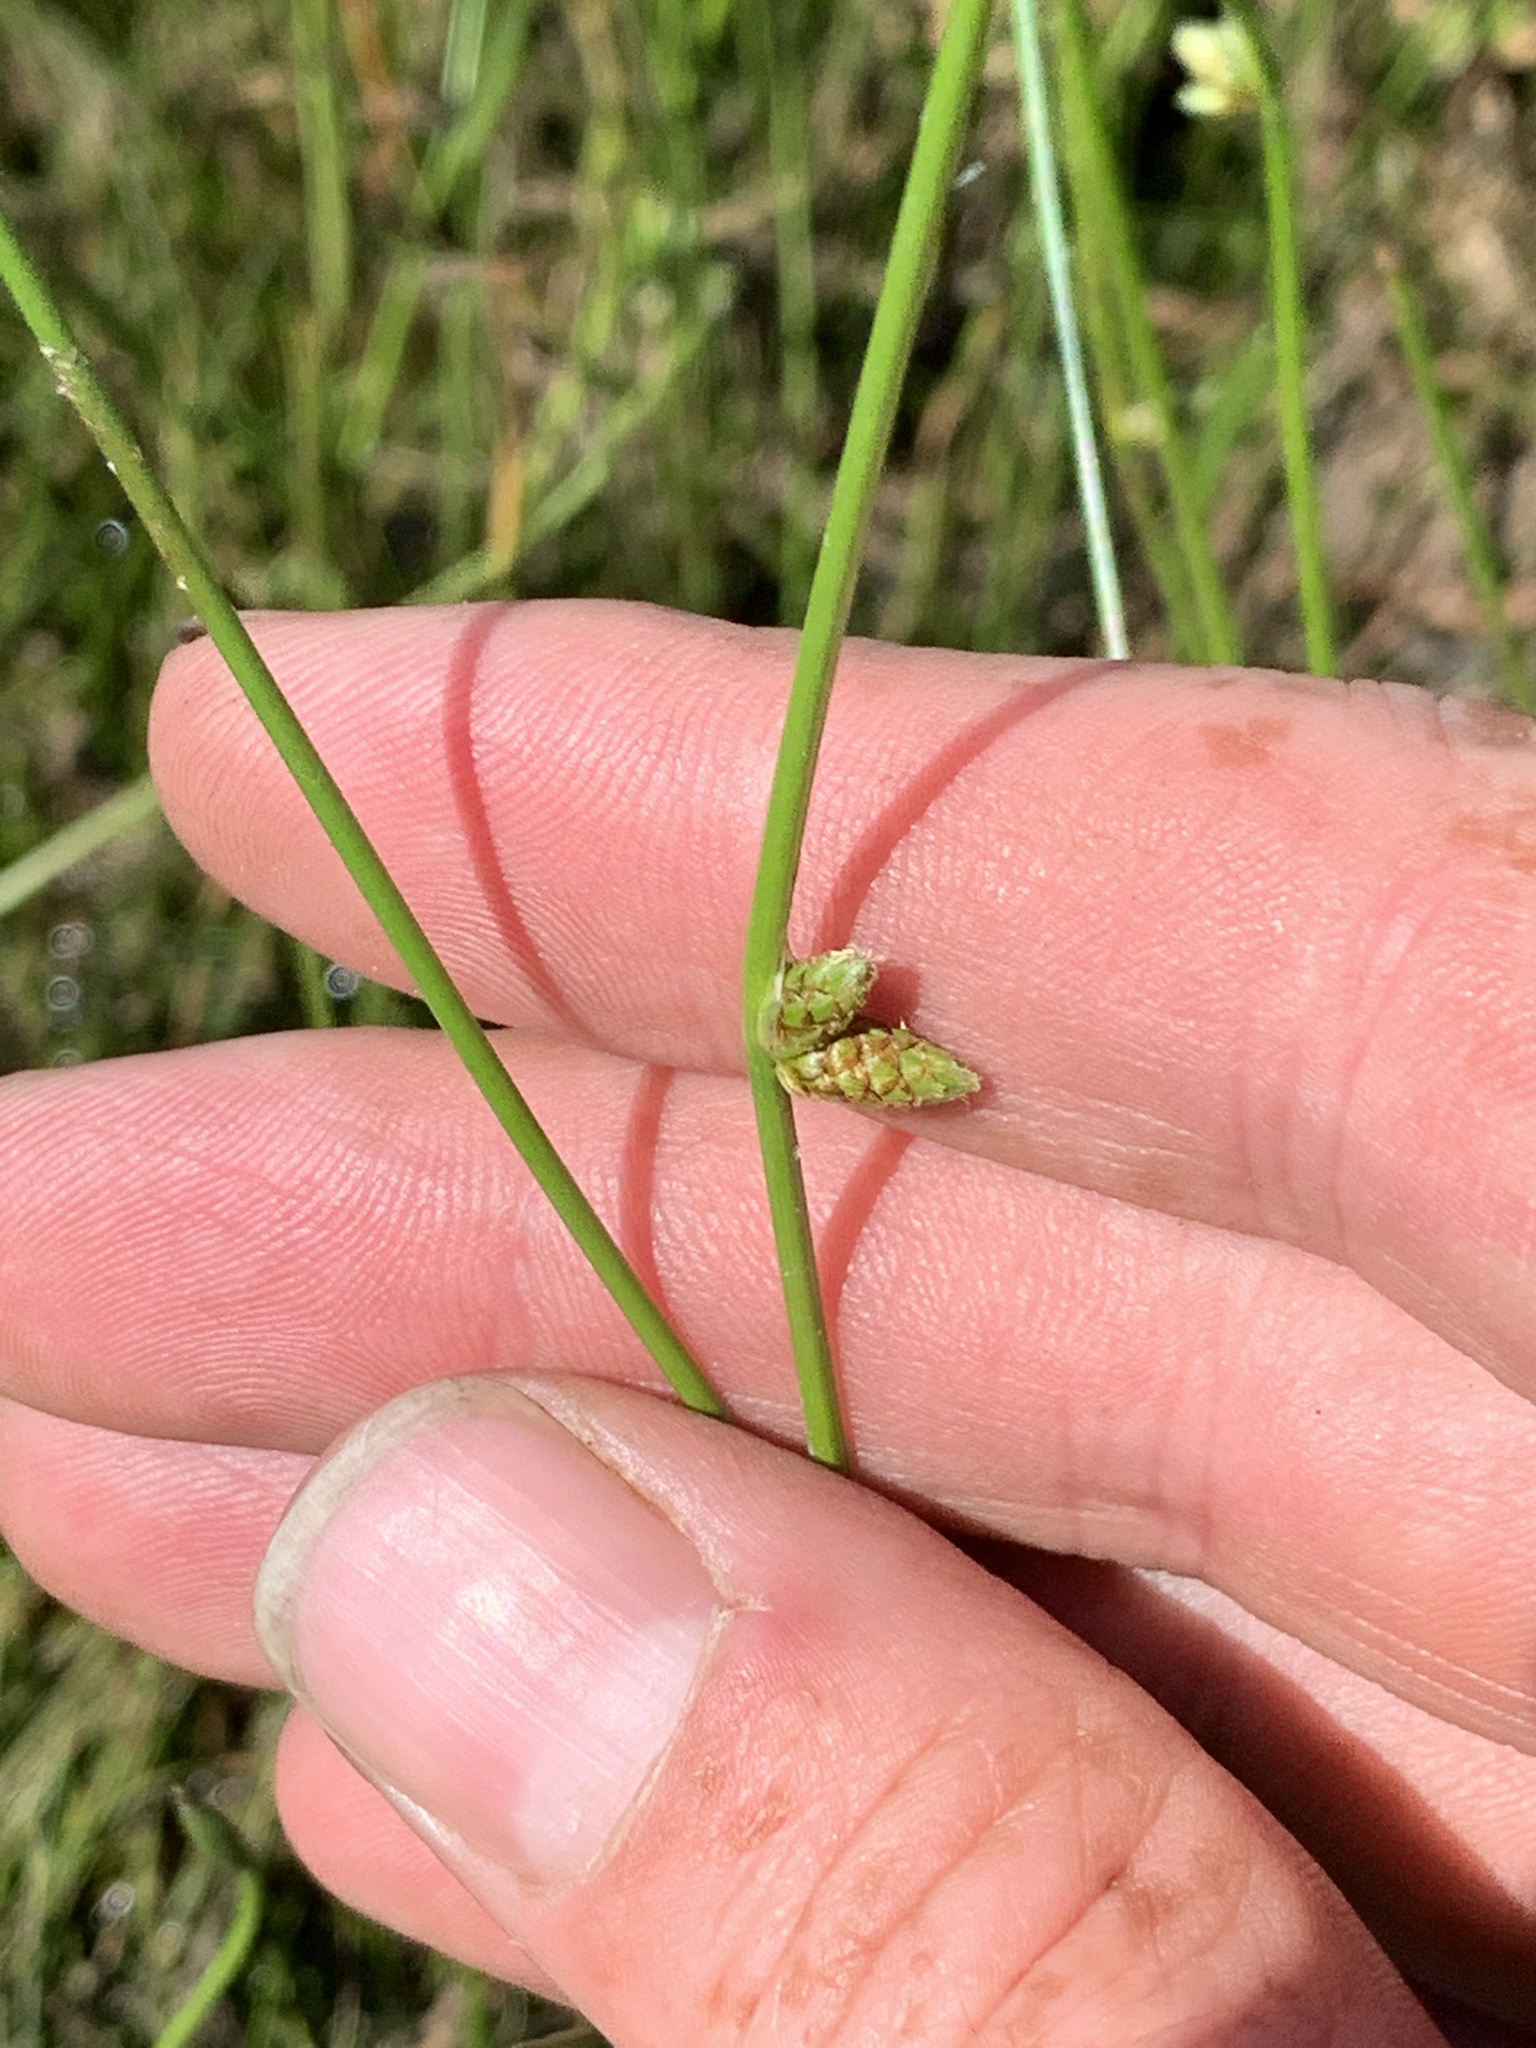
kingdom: Plantae
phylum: Tracheophyta
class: Liliopsida
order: Poales
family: Cyperaceae
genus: Schoenoplectiella
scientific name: Schoenoplectiella
